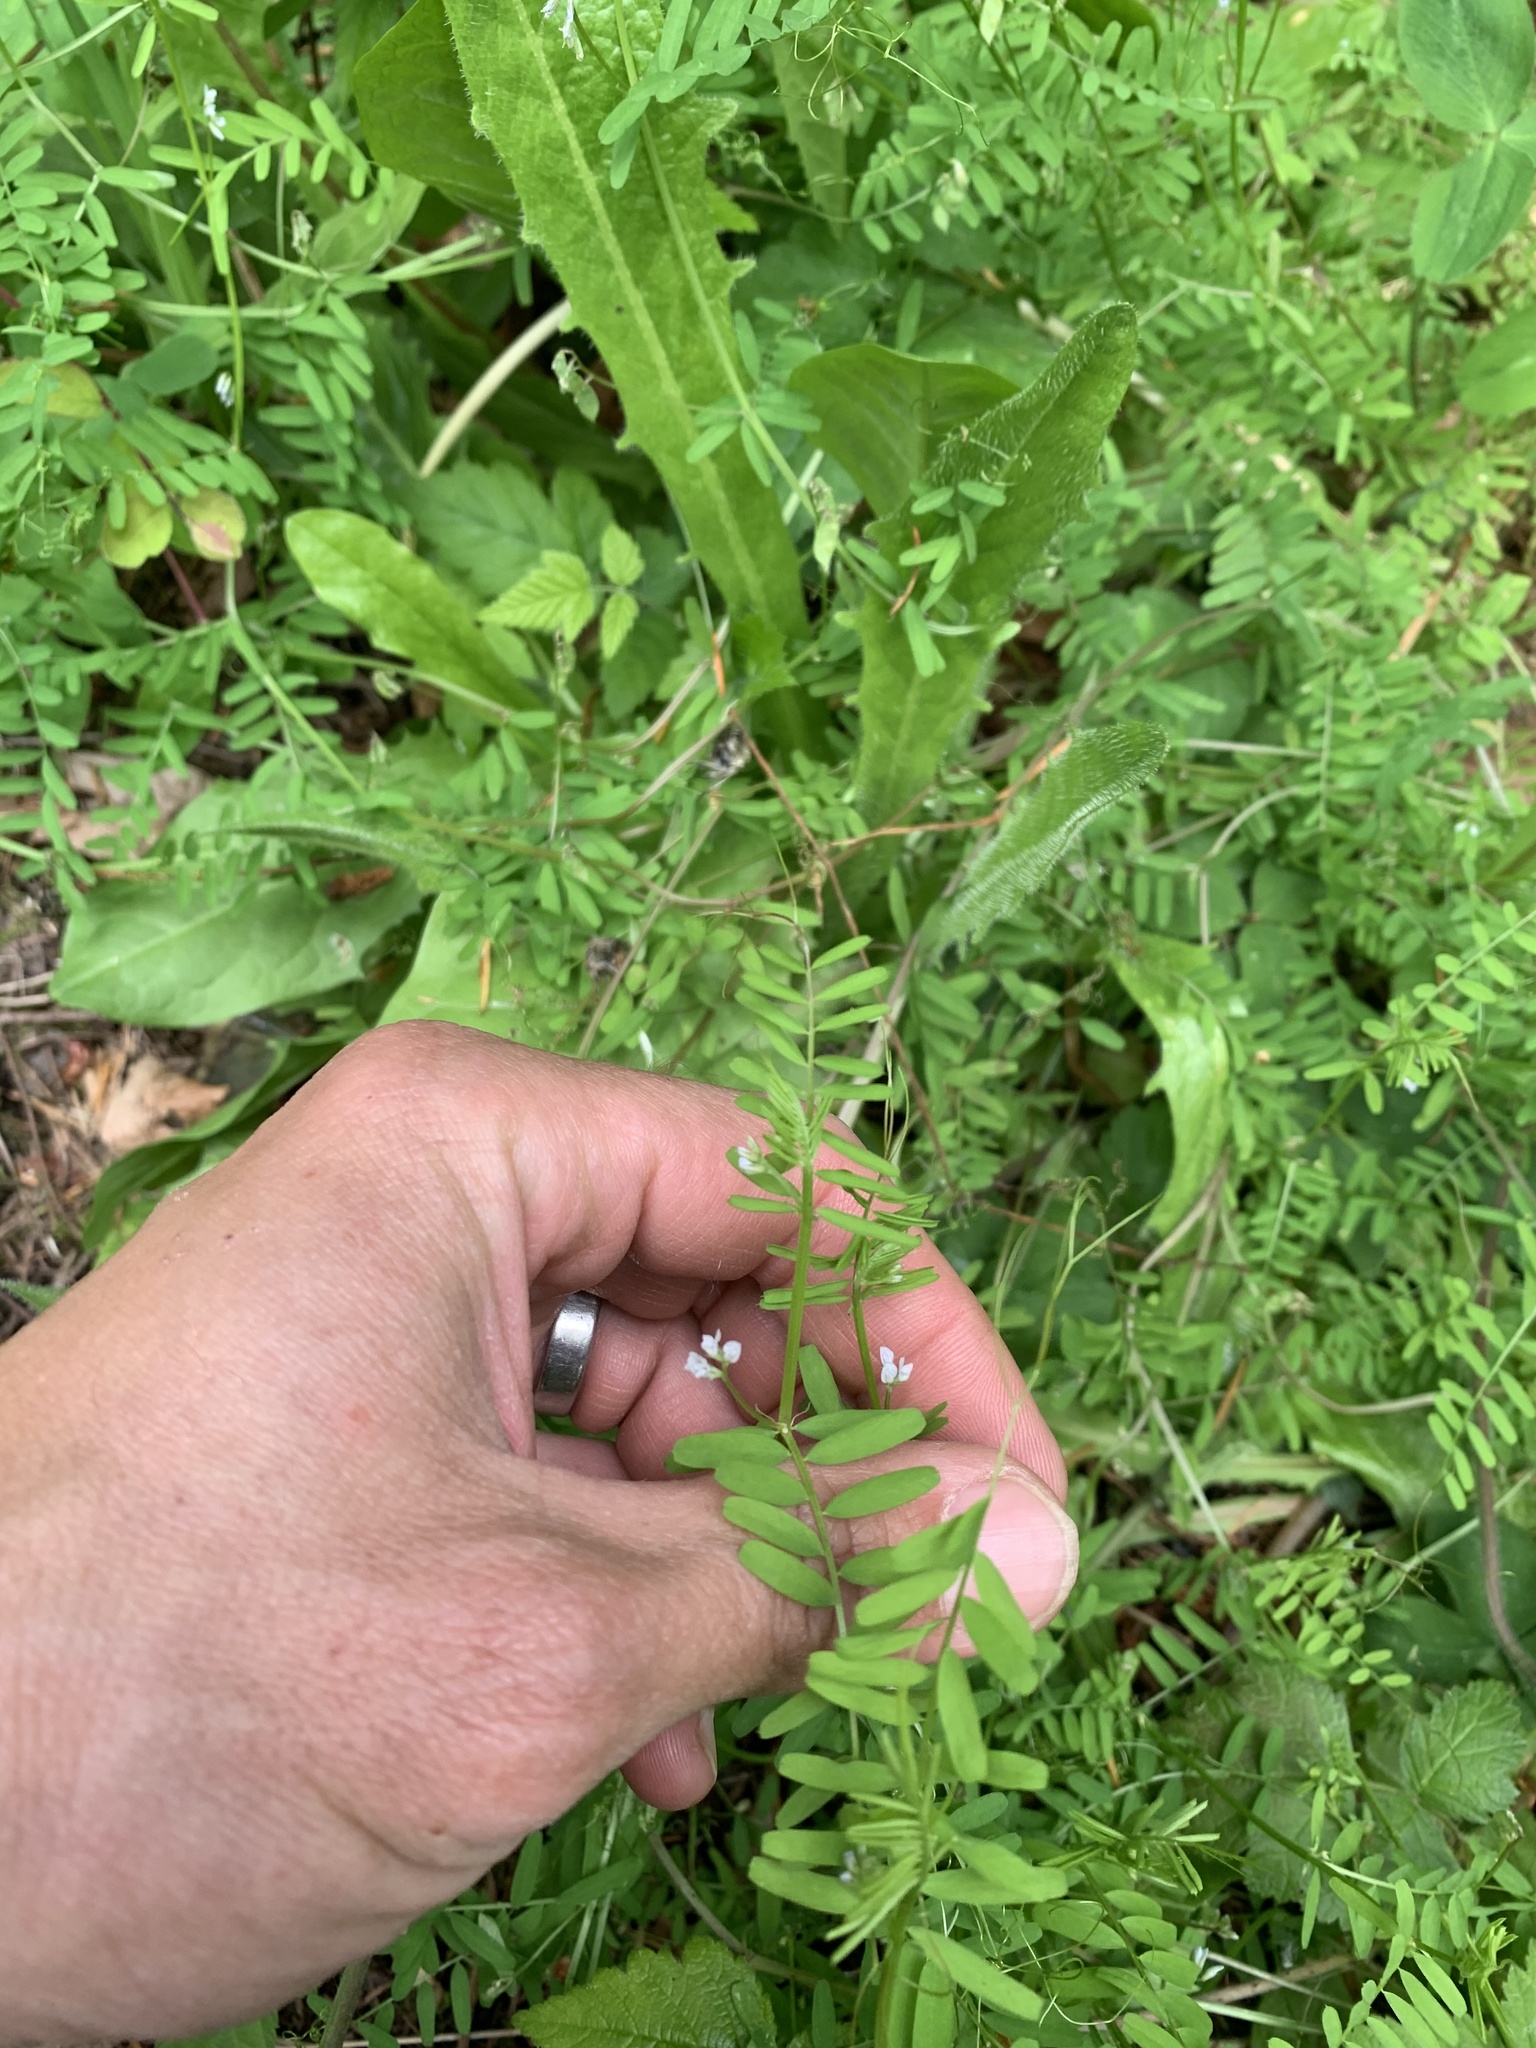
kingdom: Plantae
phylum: Tracheophyta
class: Magnoliopsida
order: Fabales
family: Fabaceae
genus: Vicia
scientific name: Vicia hirsuta
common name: Tiny vetch
